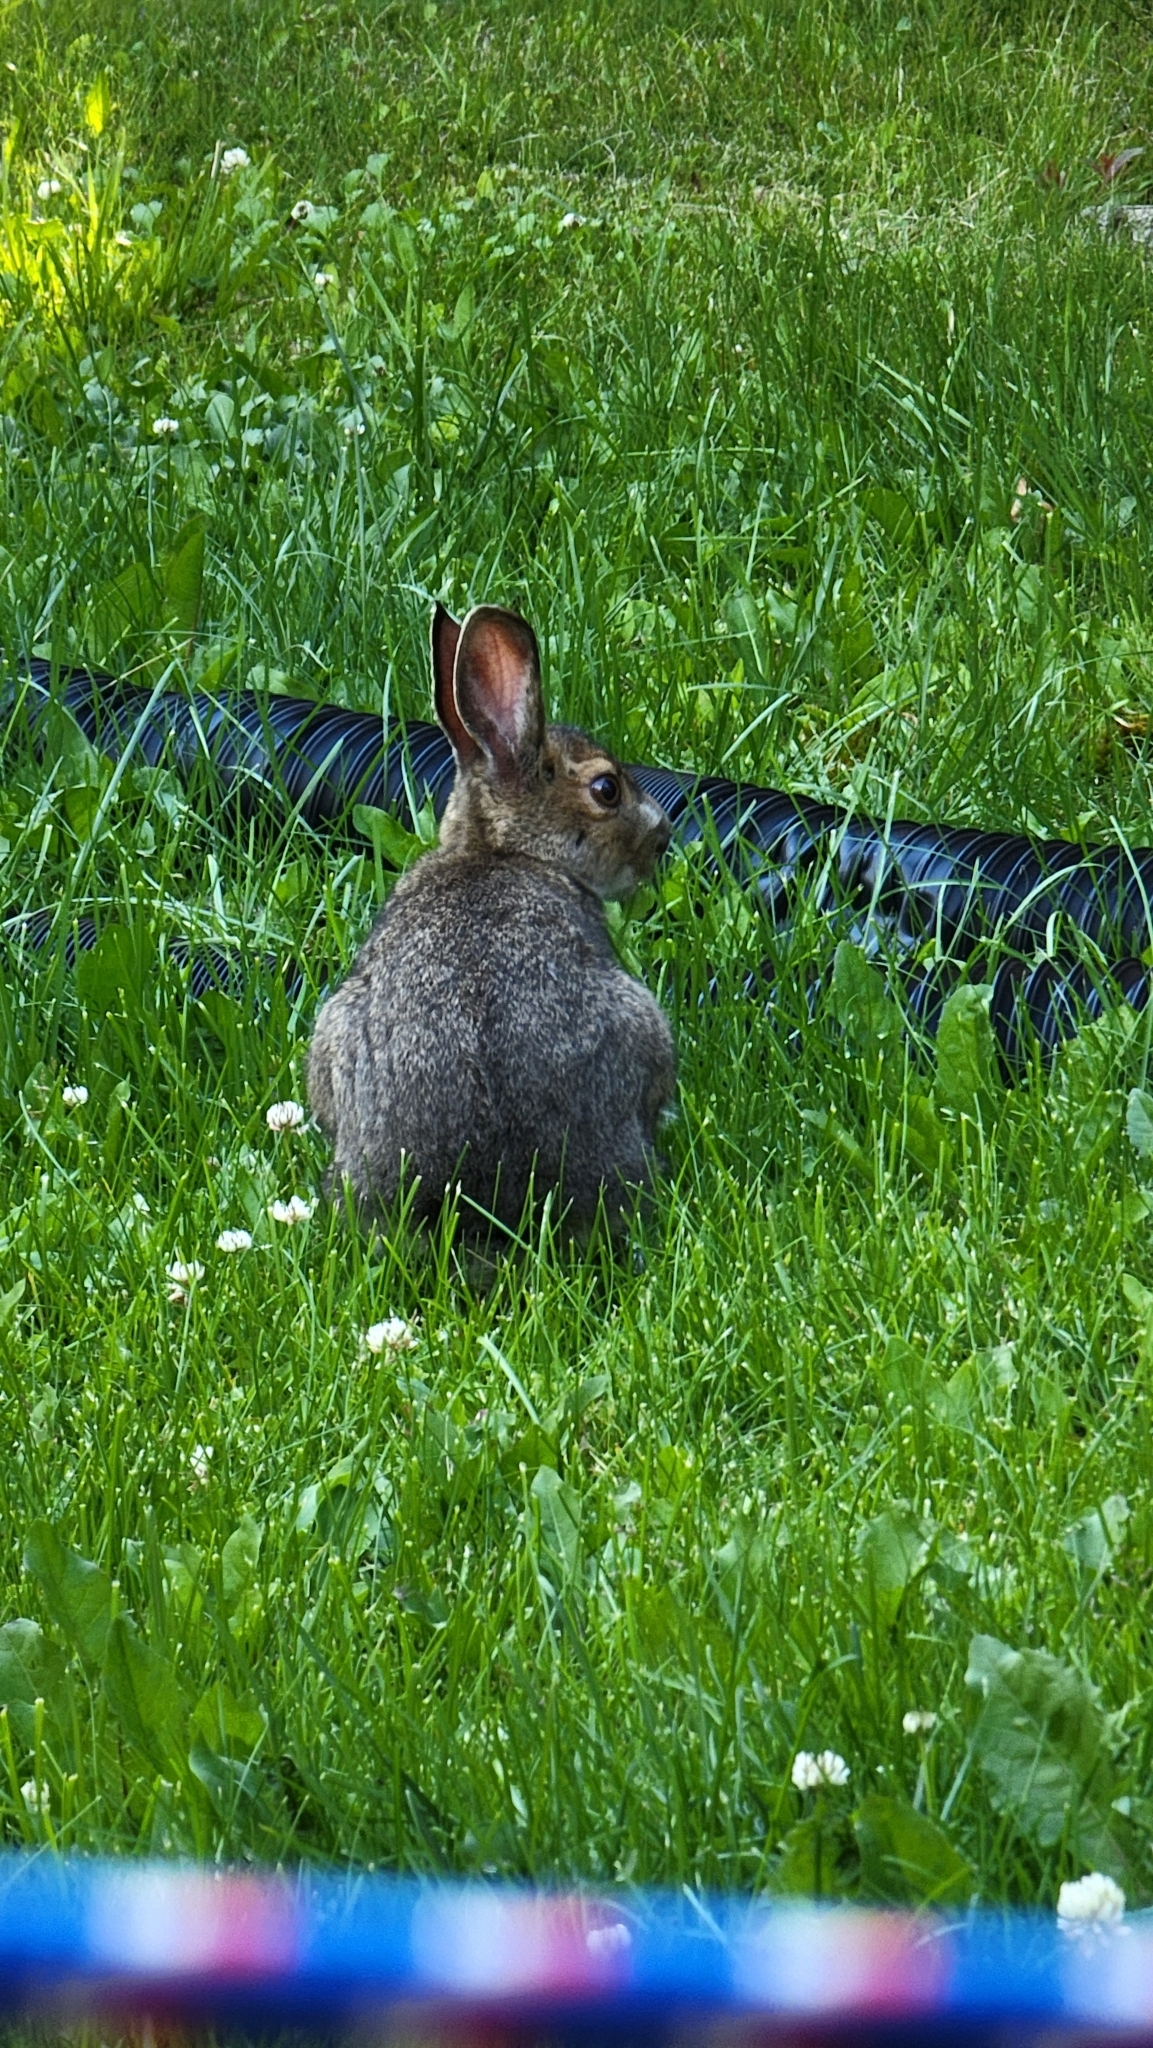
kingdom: Animalia
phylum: Chordata
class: Mammalia
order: Lagomorpha
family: Leporidae
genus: Lepus
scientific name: Lepus americanus
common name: Snowshoe hare
